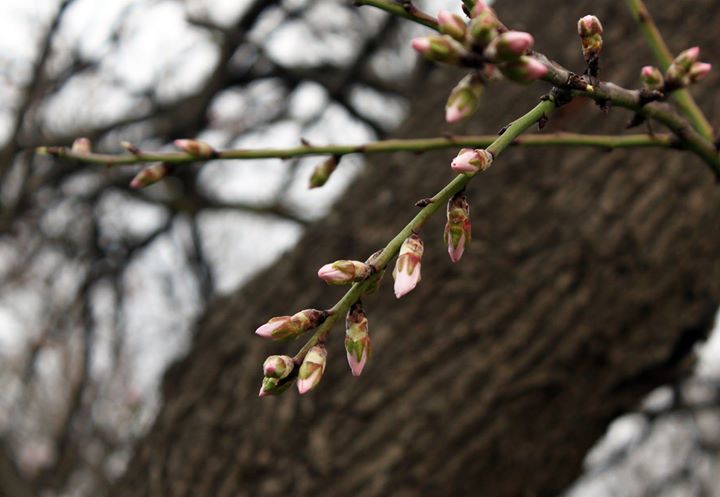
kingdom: Plantae
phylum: Tracheophyta
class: Magnoliopsida
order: Rosales
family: Rosaceae
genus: Prunus
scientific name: Prunus amygdalus
